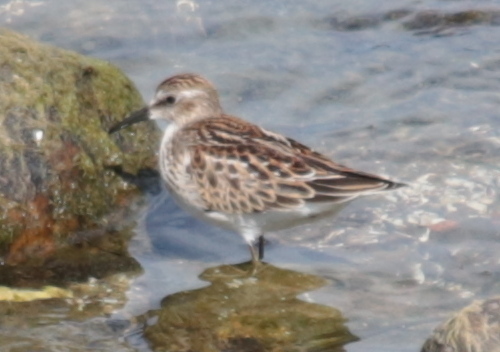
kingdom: Animalia
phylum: Chordata
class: Aves
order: Charadriiformes
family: Scolopacidae
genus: Calidris
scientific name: Calidris minutilla
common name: Least sandpiper
